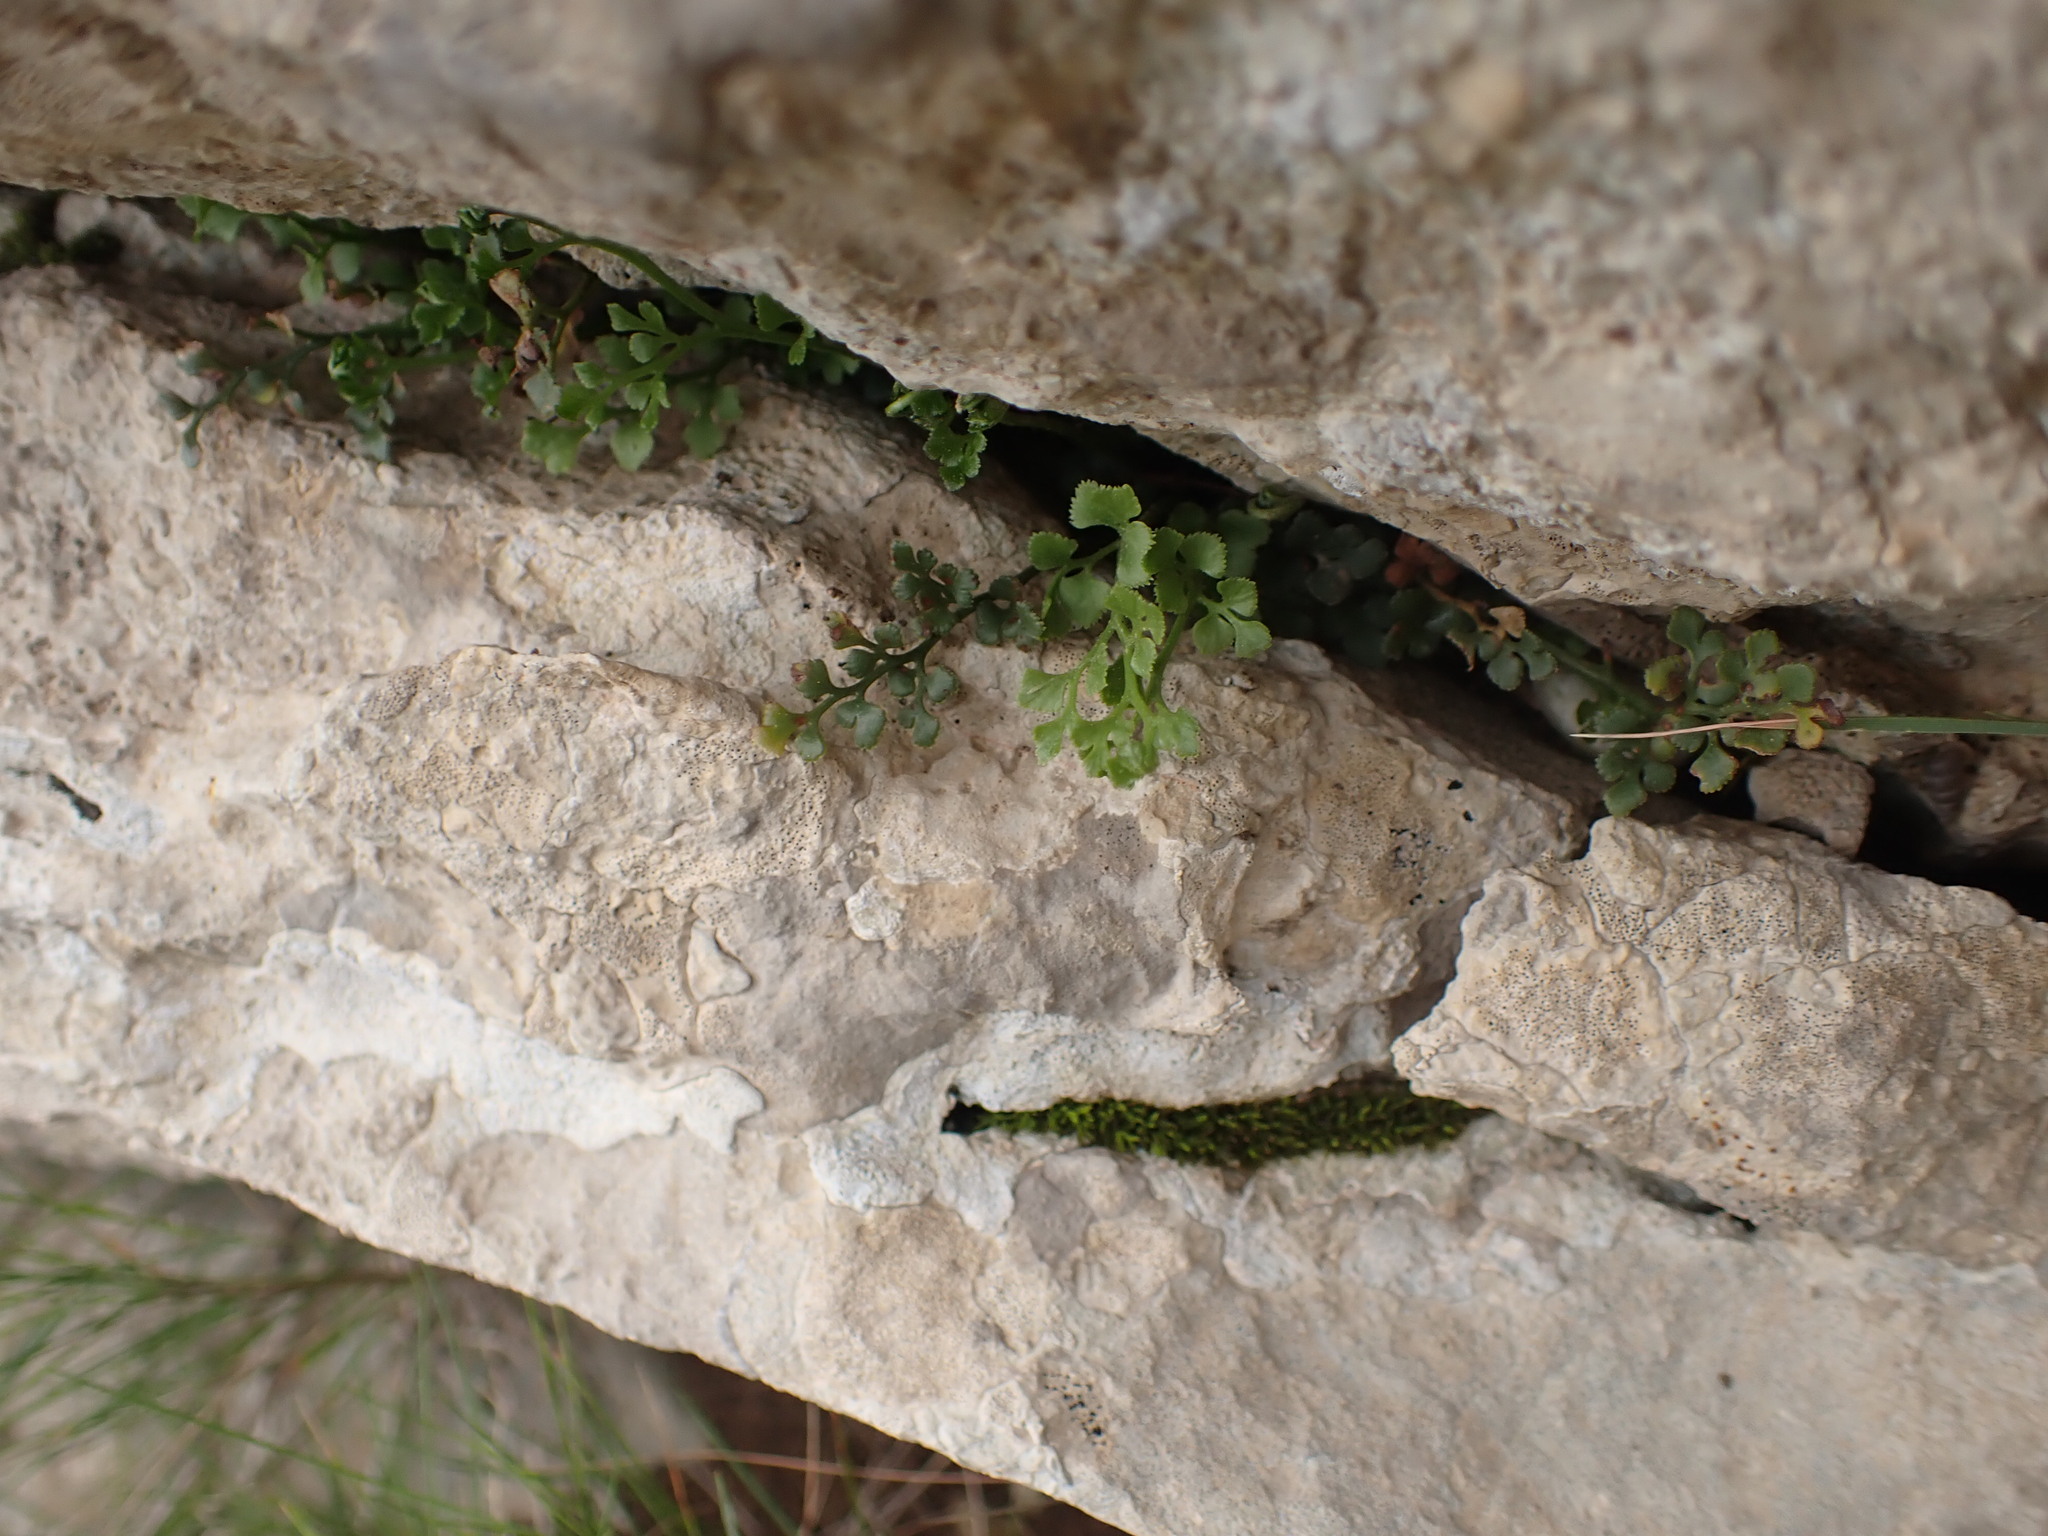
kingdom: Plantae
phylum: Tracheophyta
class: Polypodiopsida
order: Polypodiales
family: Aspleniaceae
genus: Asplenium
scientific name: Asplenium ruta-muraria
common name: Wall-rue
